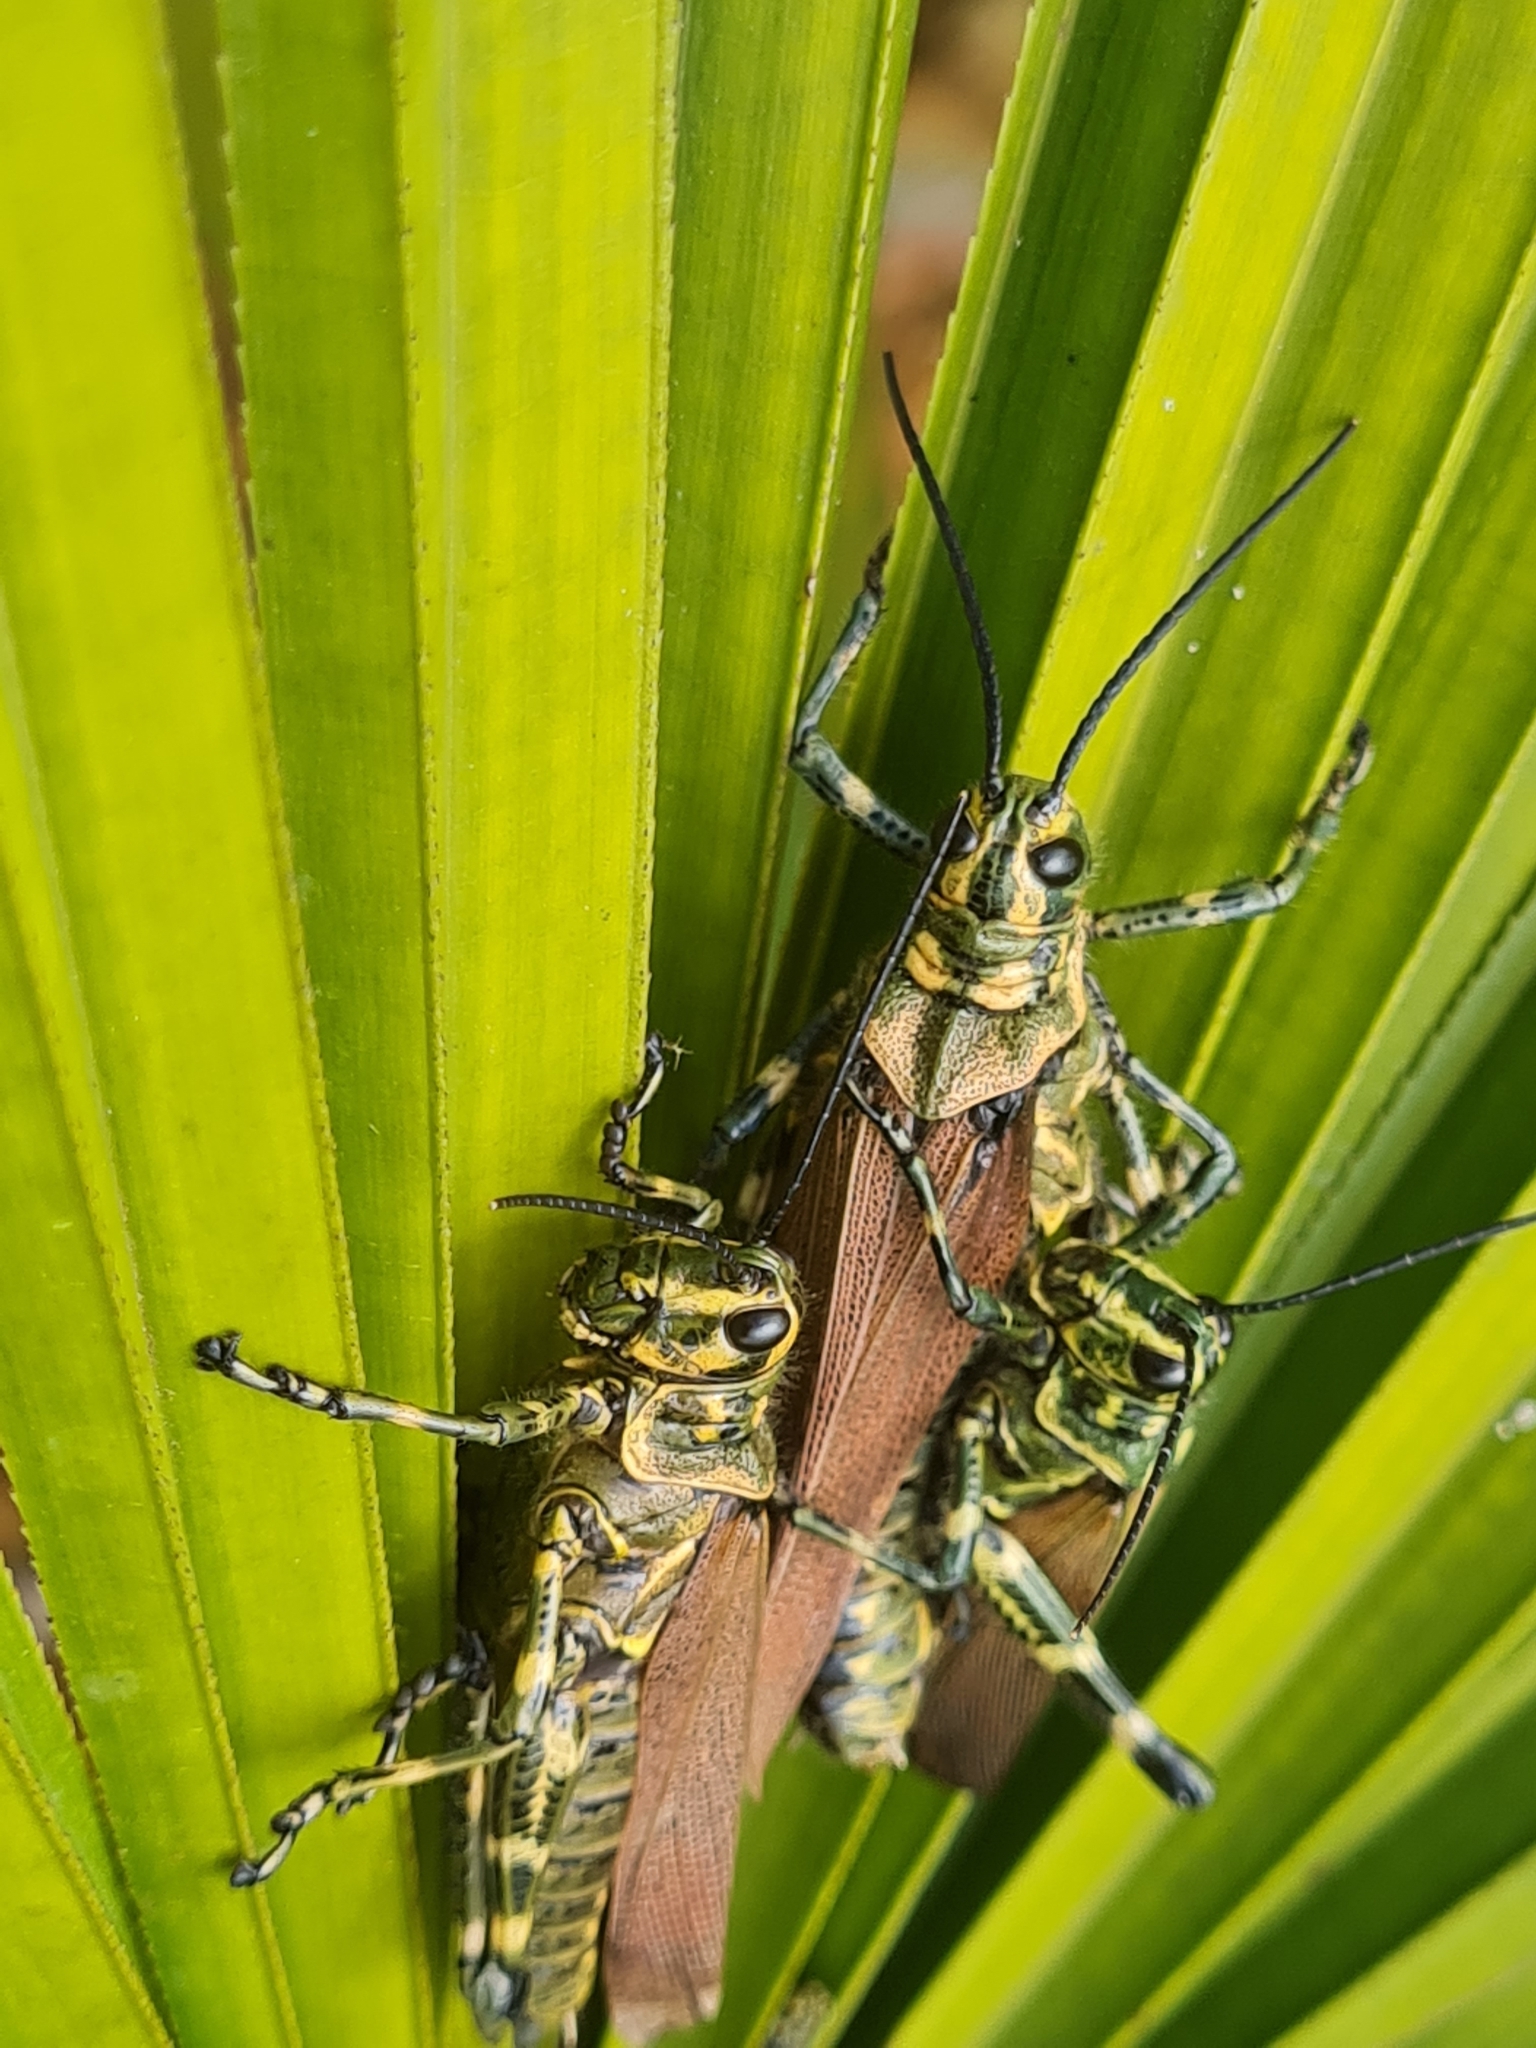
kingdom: Animalia
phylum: Arthropoda
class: Insecta
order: Orthoptera
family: Romaleidae
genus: Chromacris
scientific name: Chromacris speciosa
